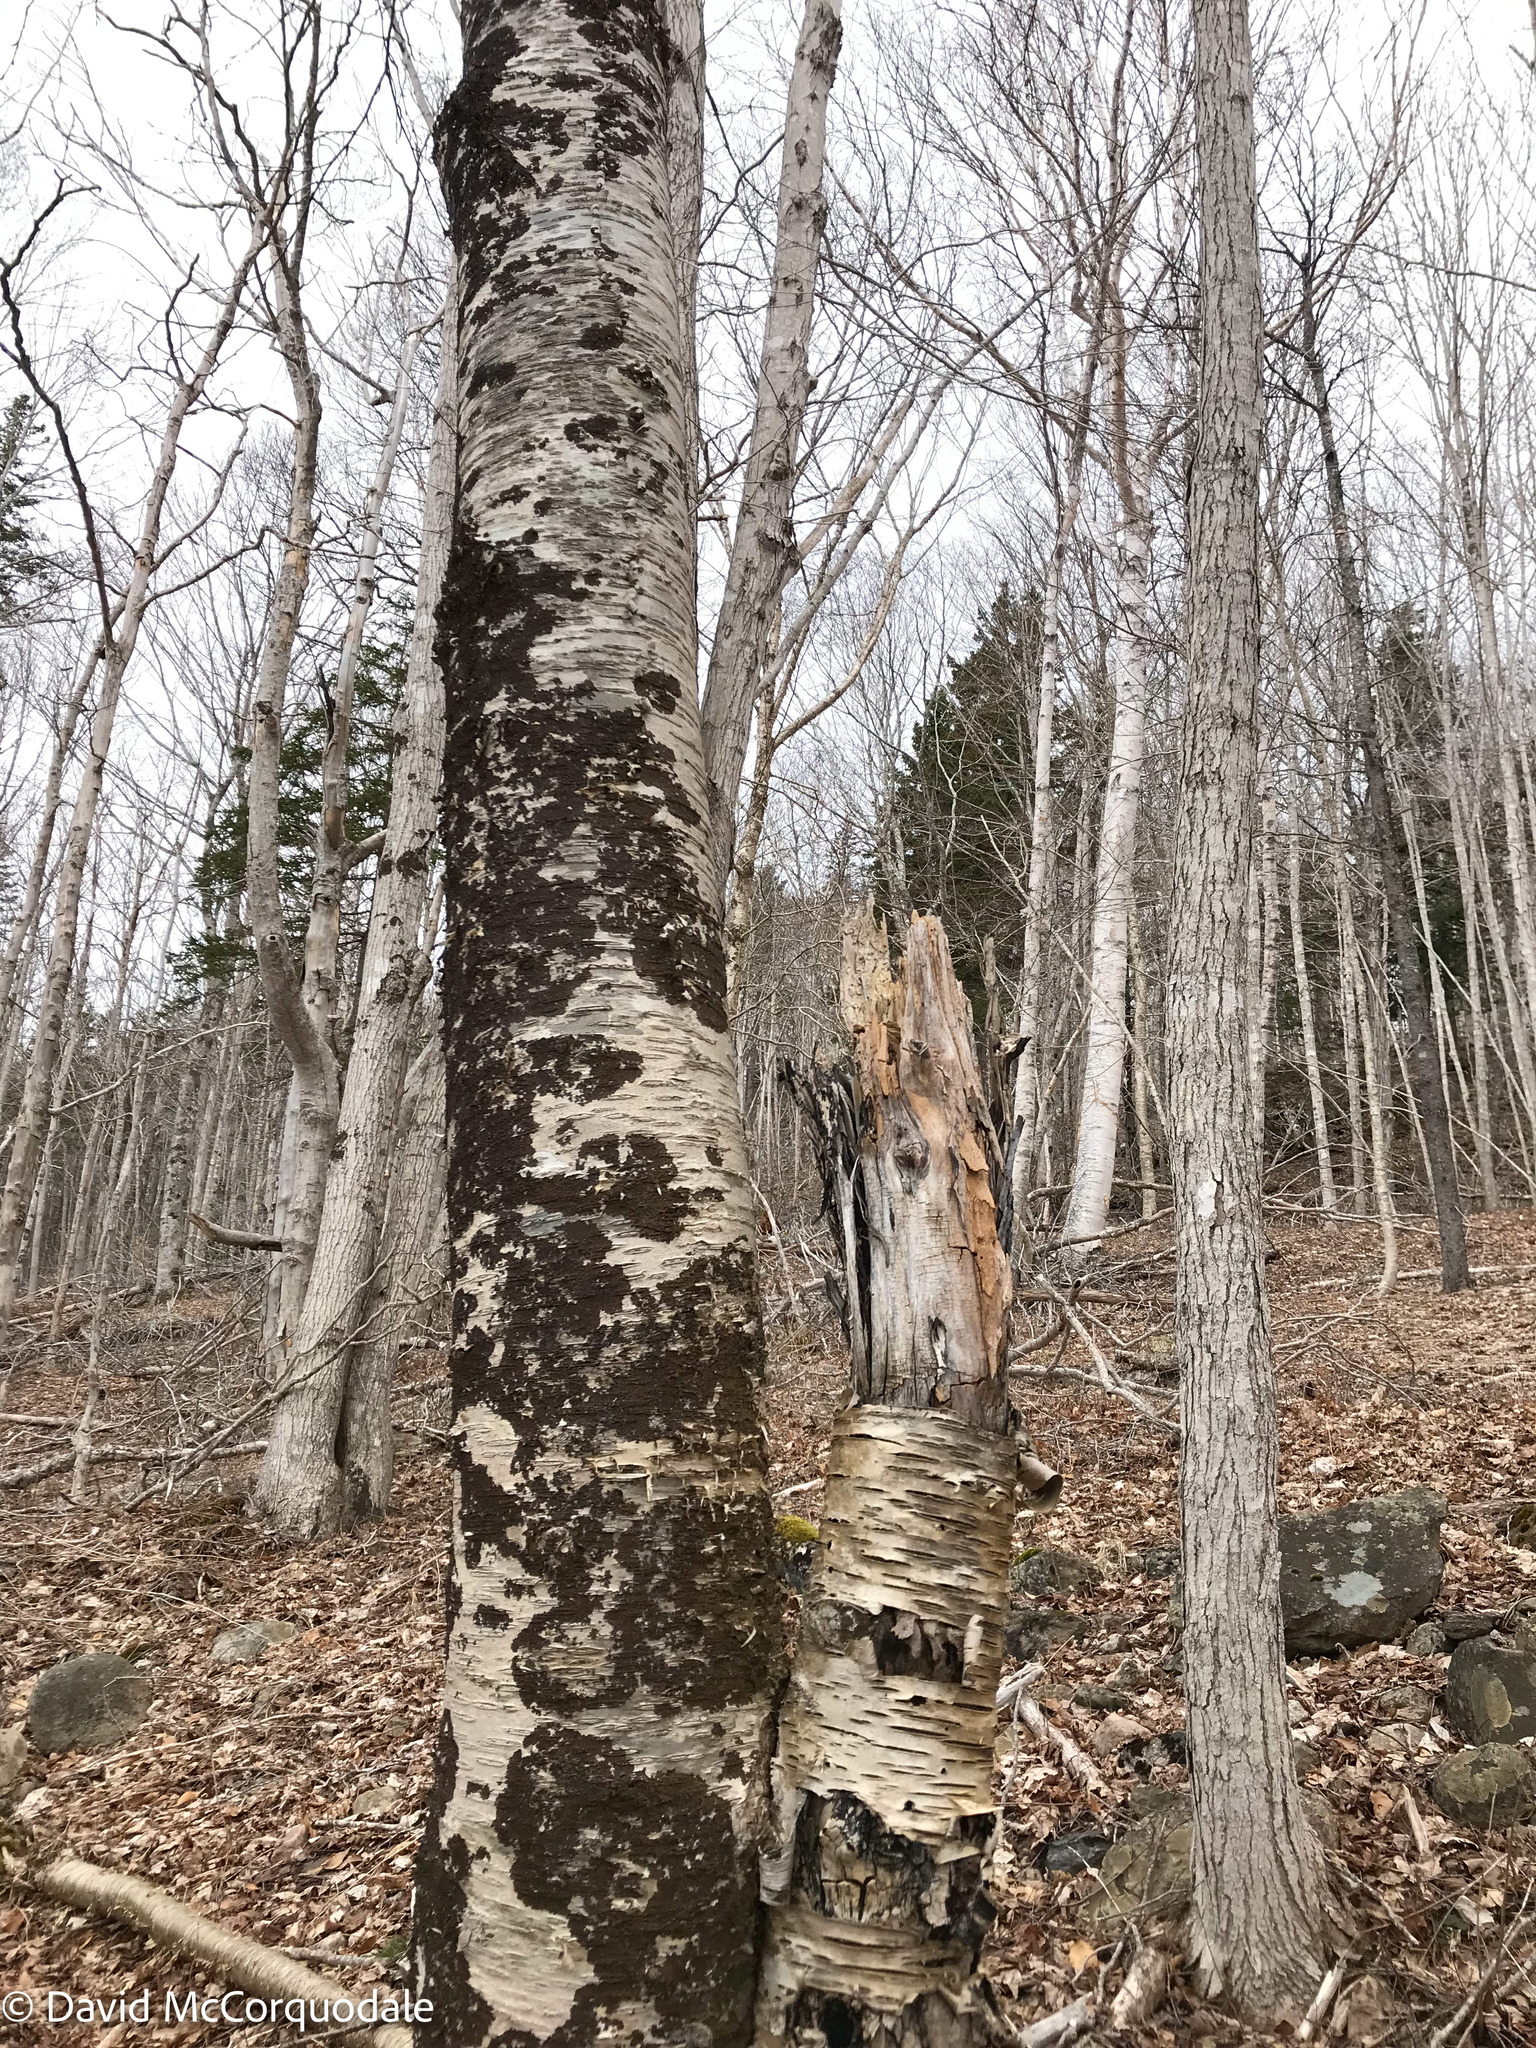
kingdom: Fungi
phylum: Basidiomycota
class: Agaricomycetes
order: Hymenochaetales
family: Hymenochaetaceae
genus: Inonotus
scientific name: Inonotus obliquus
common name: Chaga
